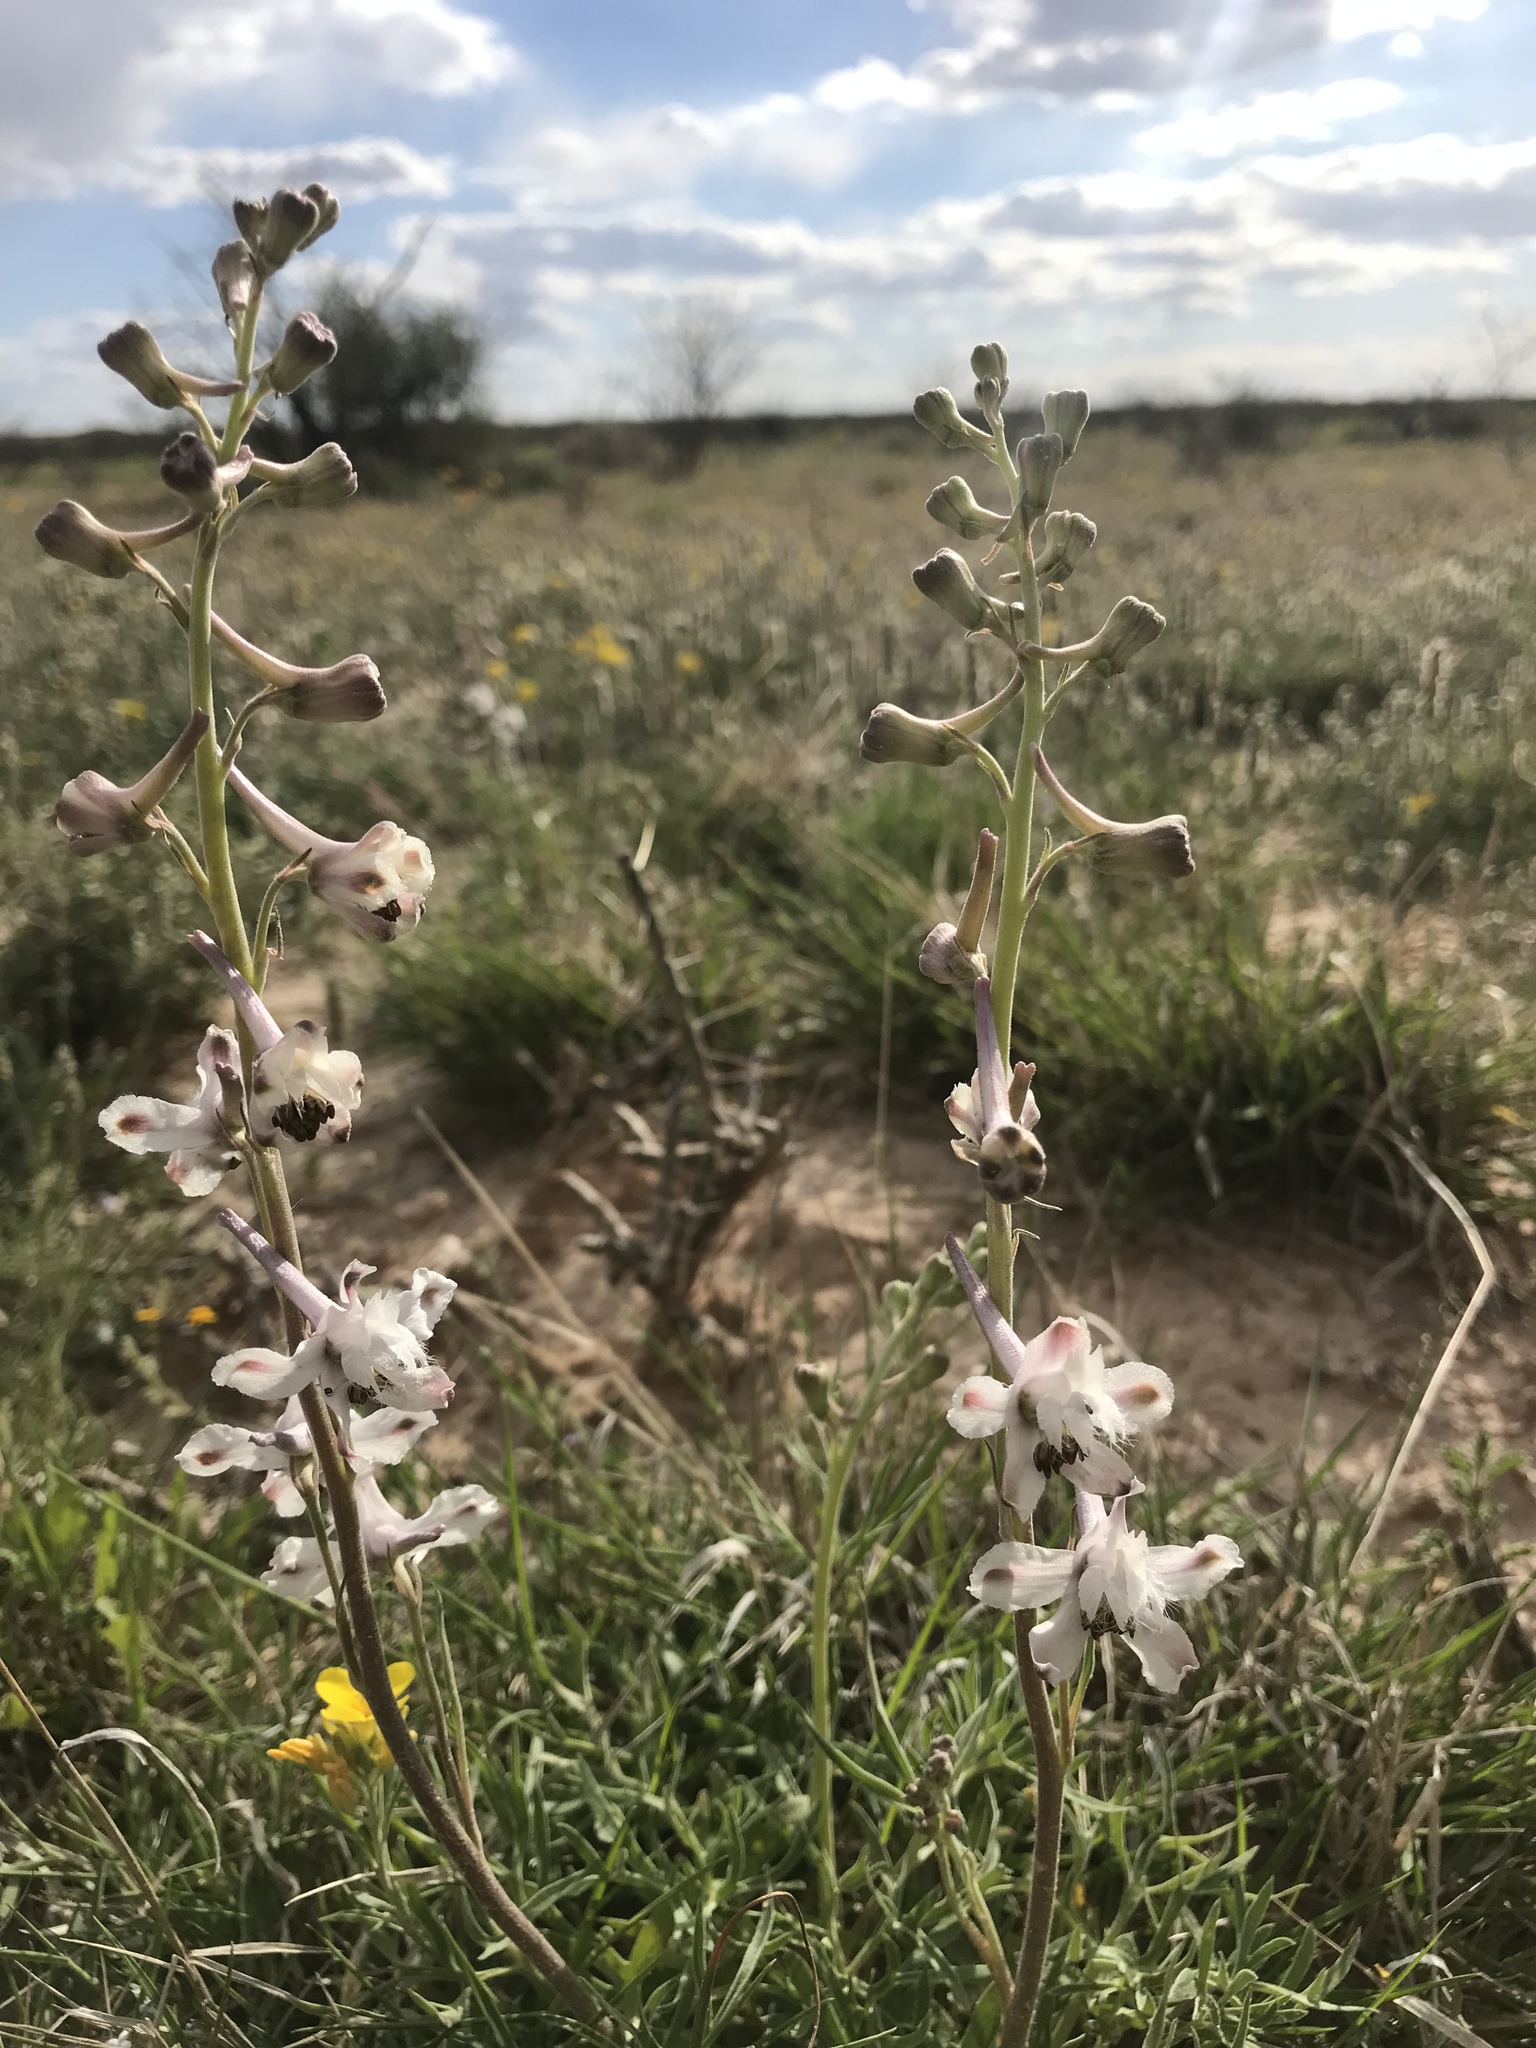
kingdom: Plantae
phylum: Tracheophyta
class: Magnoliopsida
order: Ranunculales
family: Ranunculaceae
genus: Delphinium
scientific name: Delphinium carolinianum
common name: Carolina larkspur
